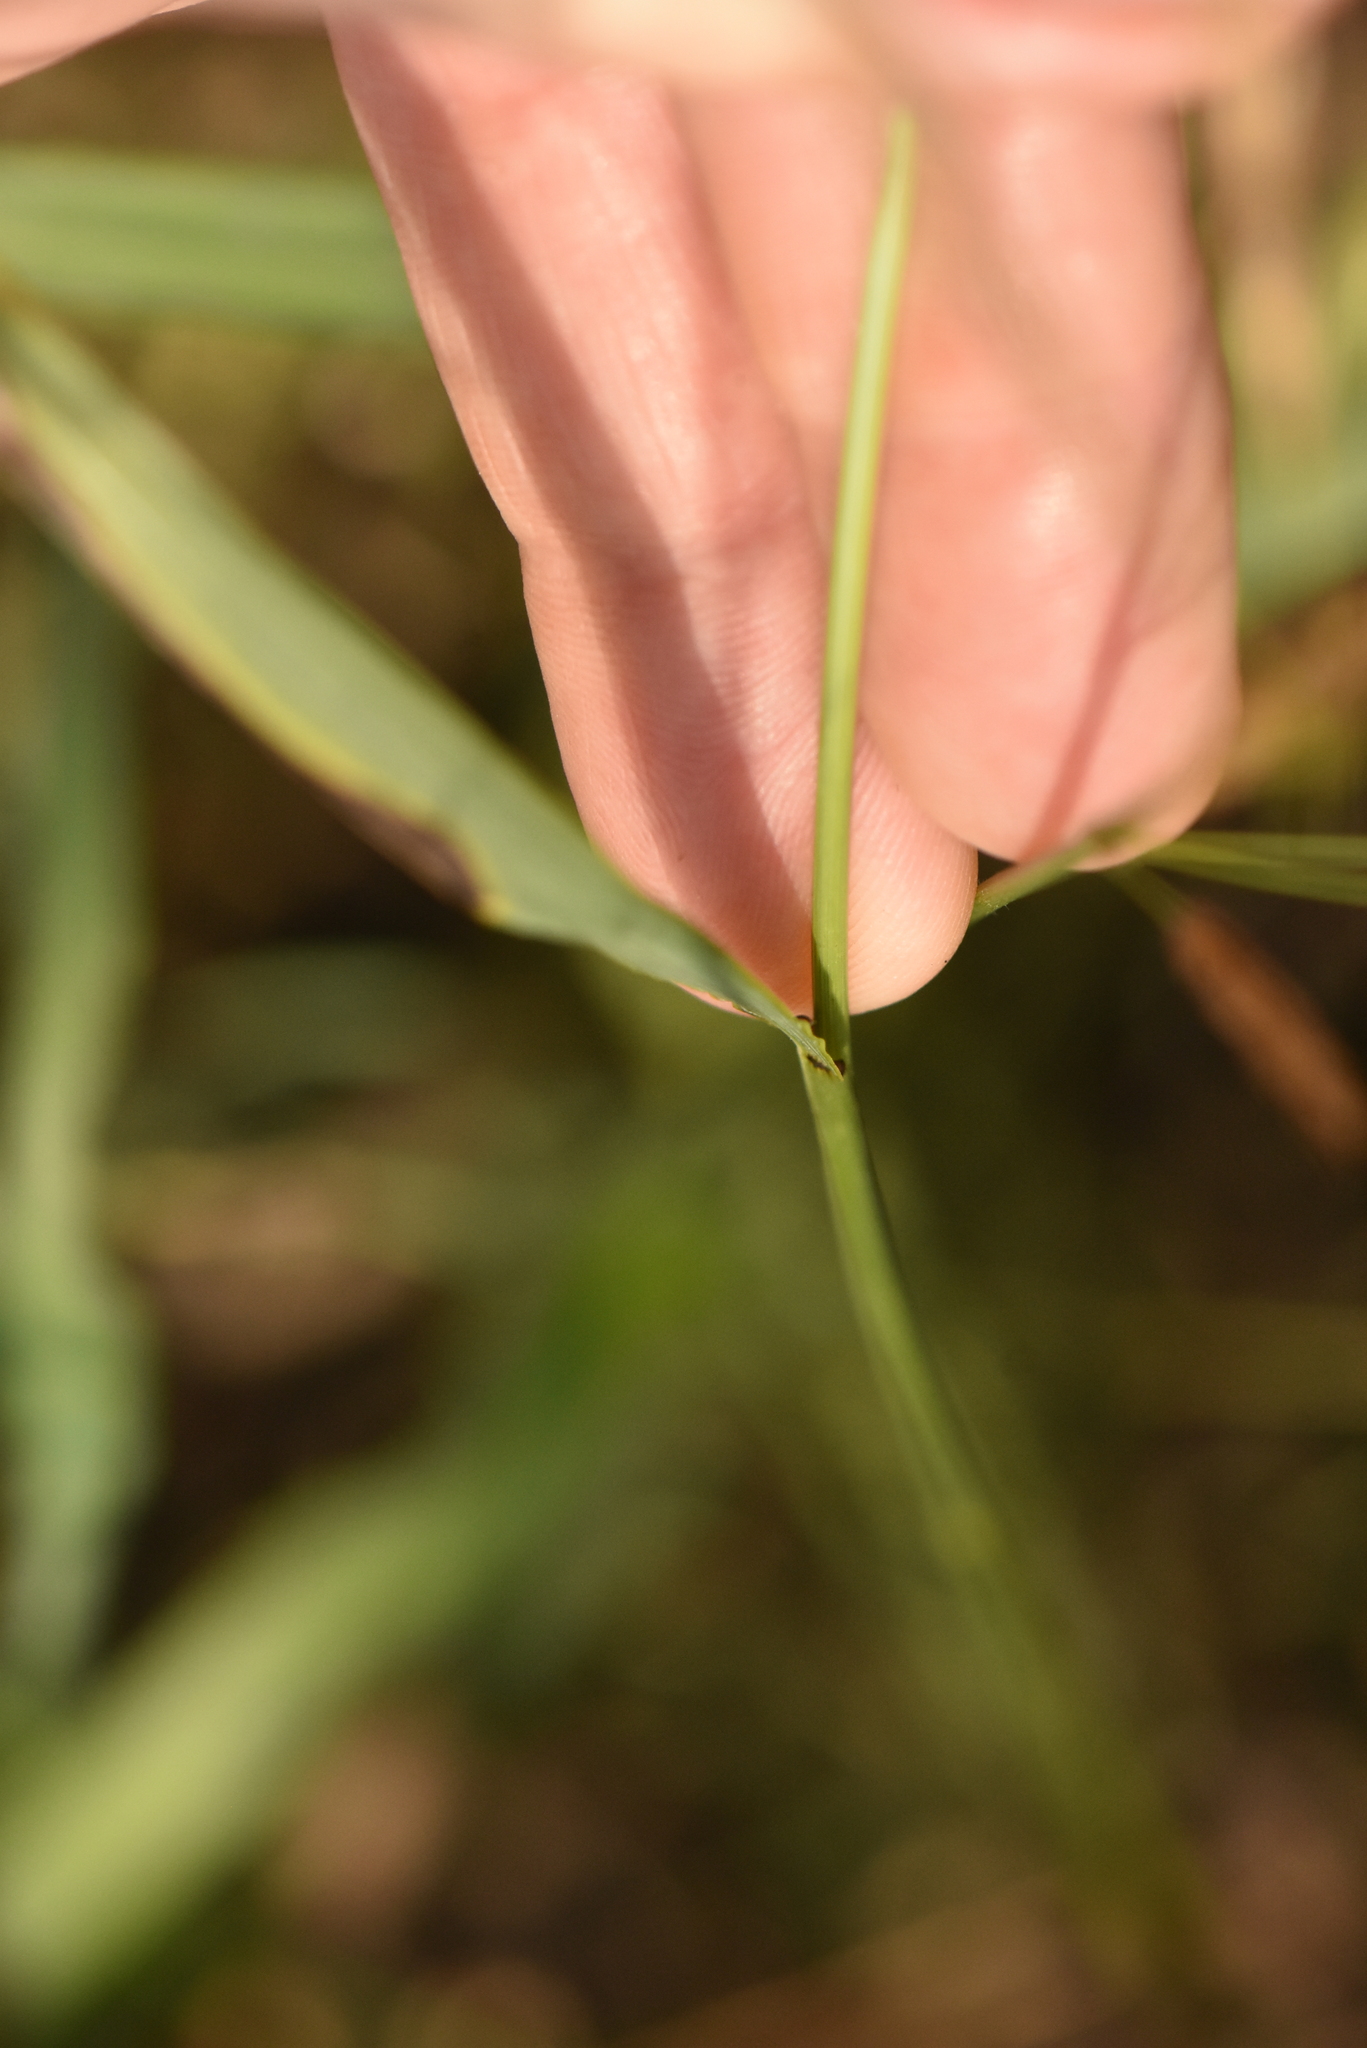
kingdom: Plantae
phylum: Tracheophyta
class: Liliopsida
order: Poales
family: Poaceae
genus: Bromus
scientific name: Bromus inermis
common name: Smooth brome
